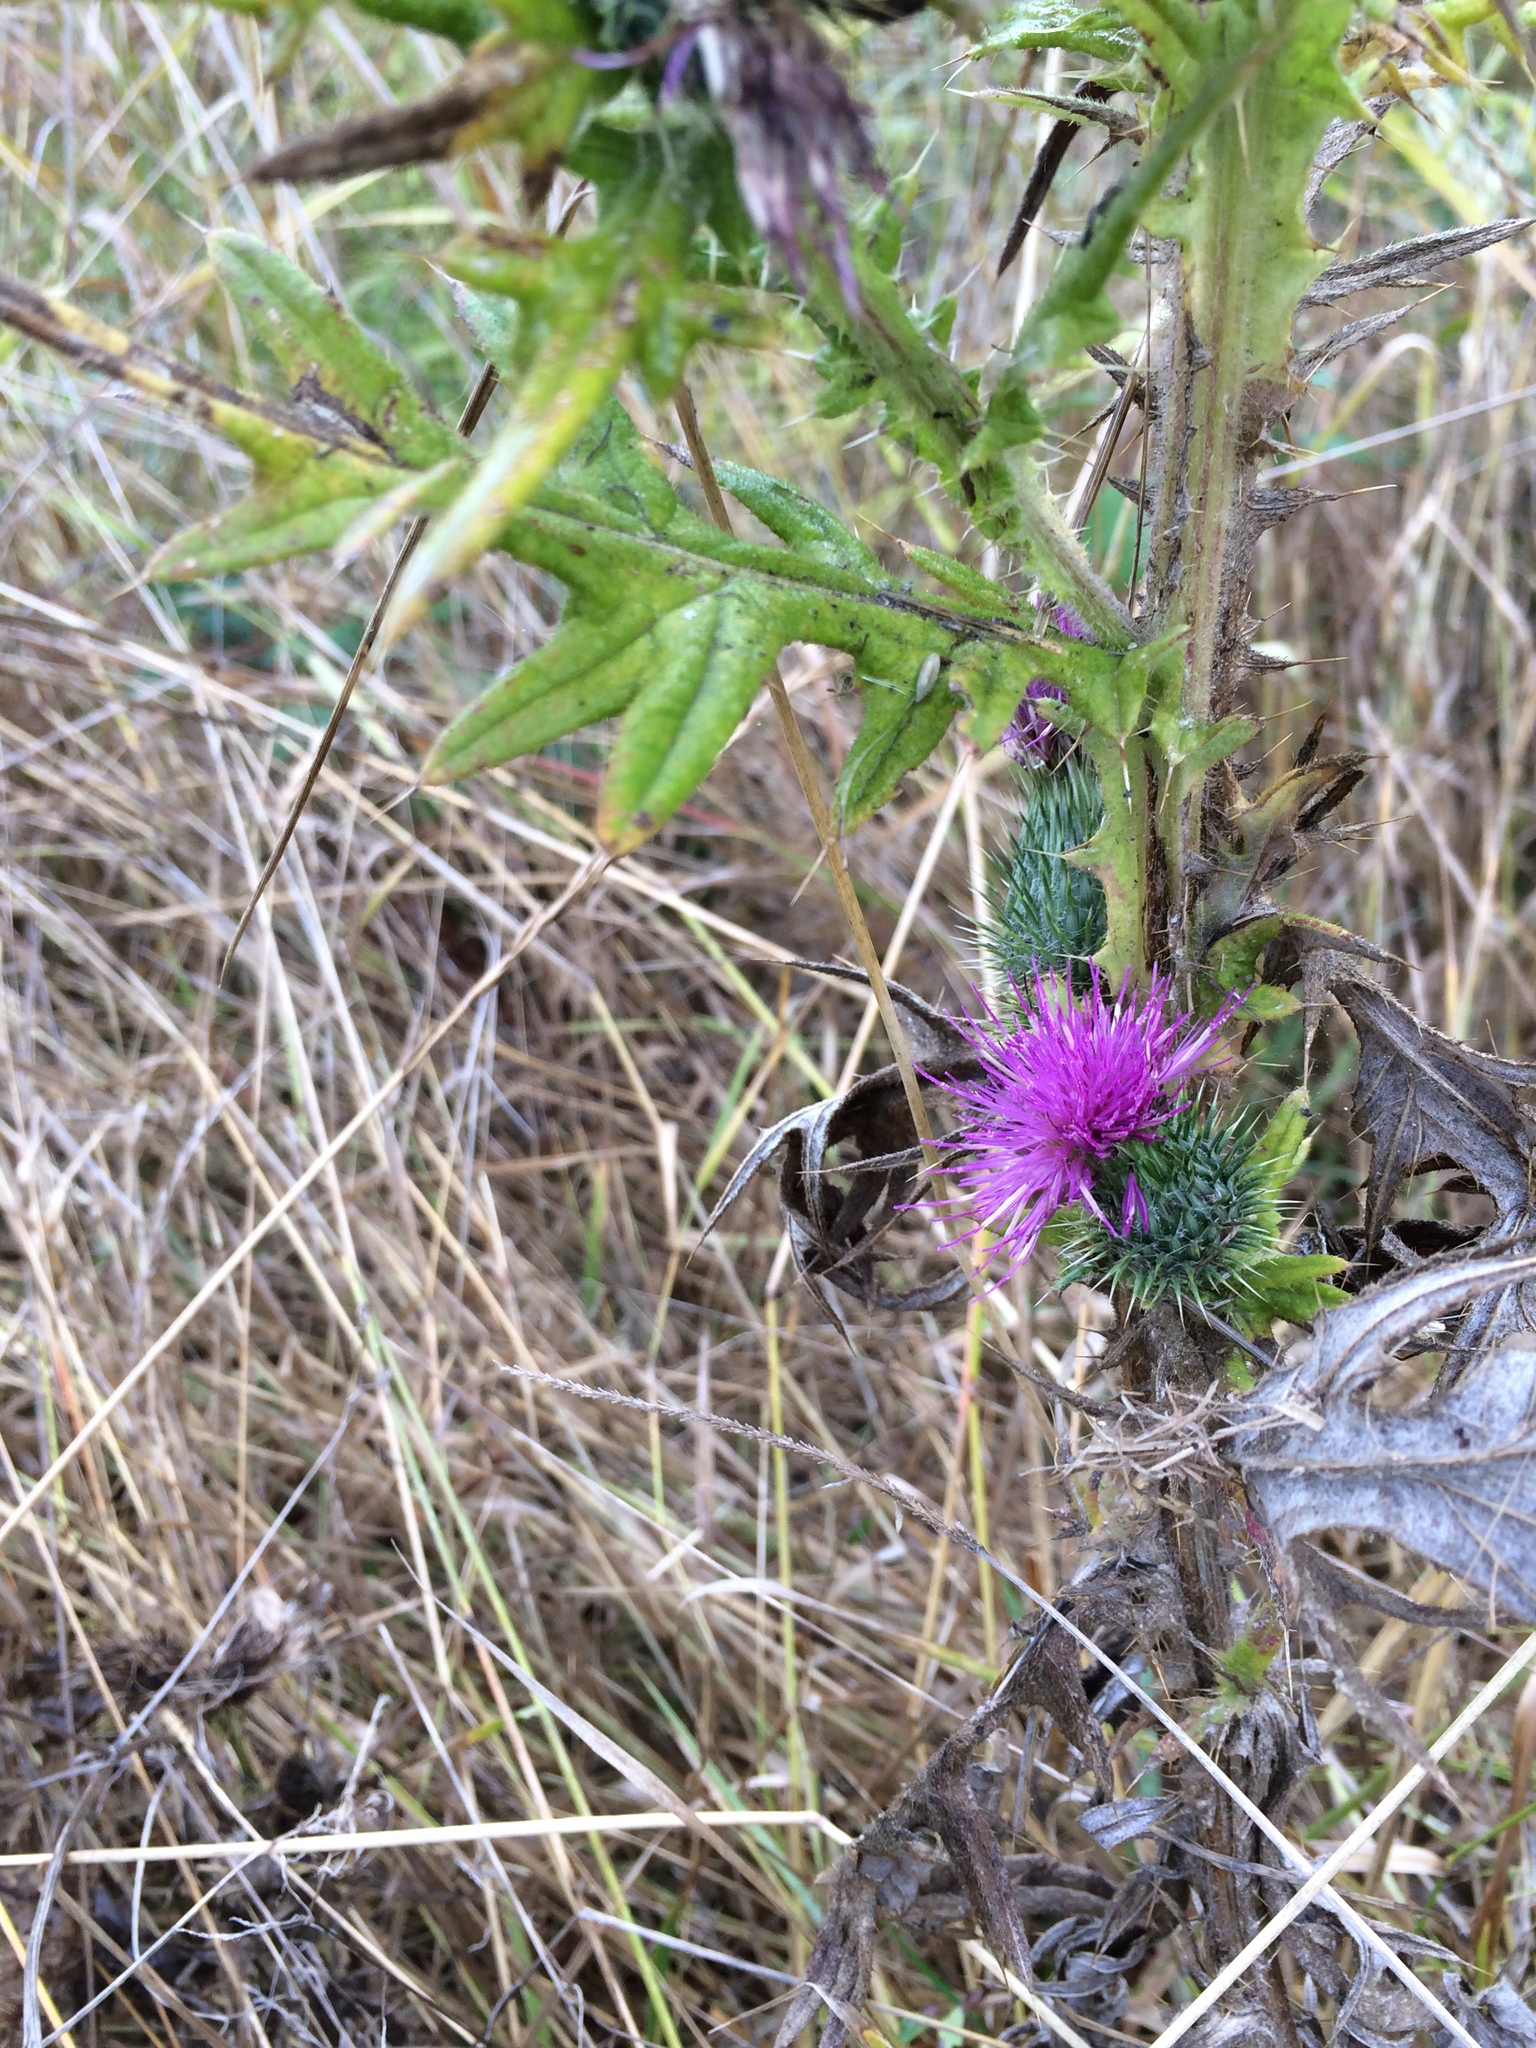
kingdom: Plantae
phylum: Tracheophyta
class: Magnoliopsida
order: Asterales
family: Asteraceae
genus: Cirsium
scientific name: Cirsium vulgare
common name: Bull thistle
